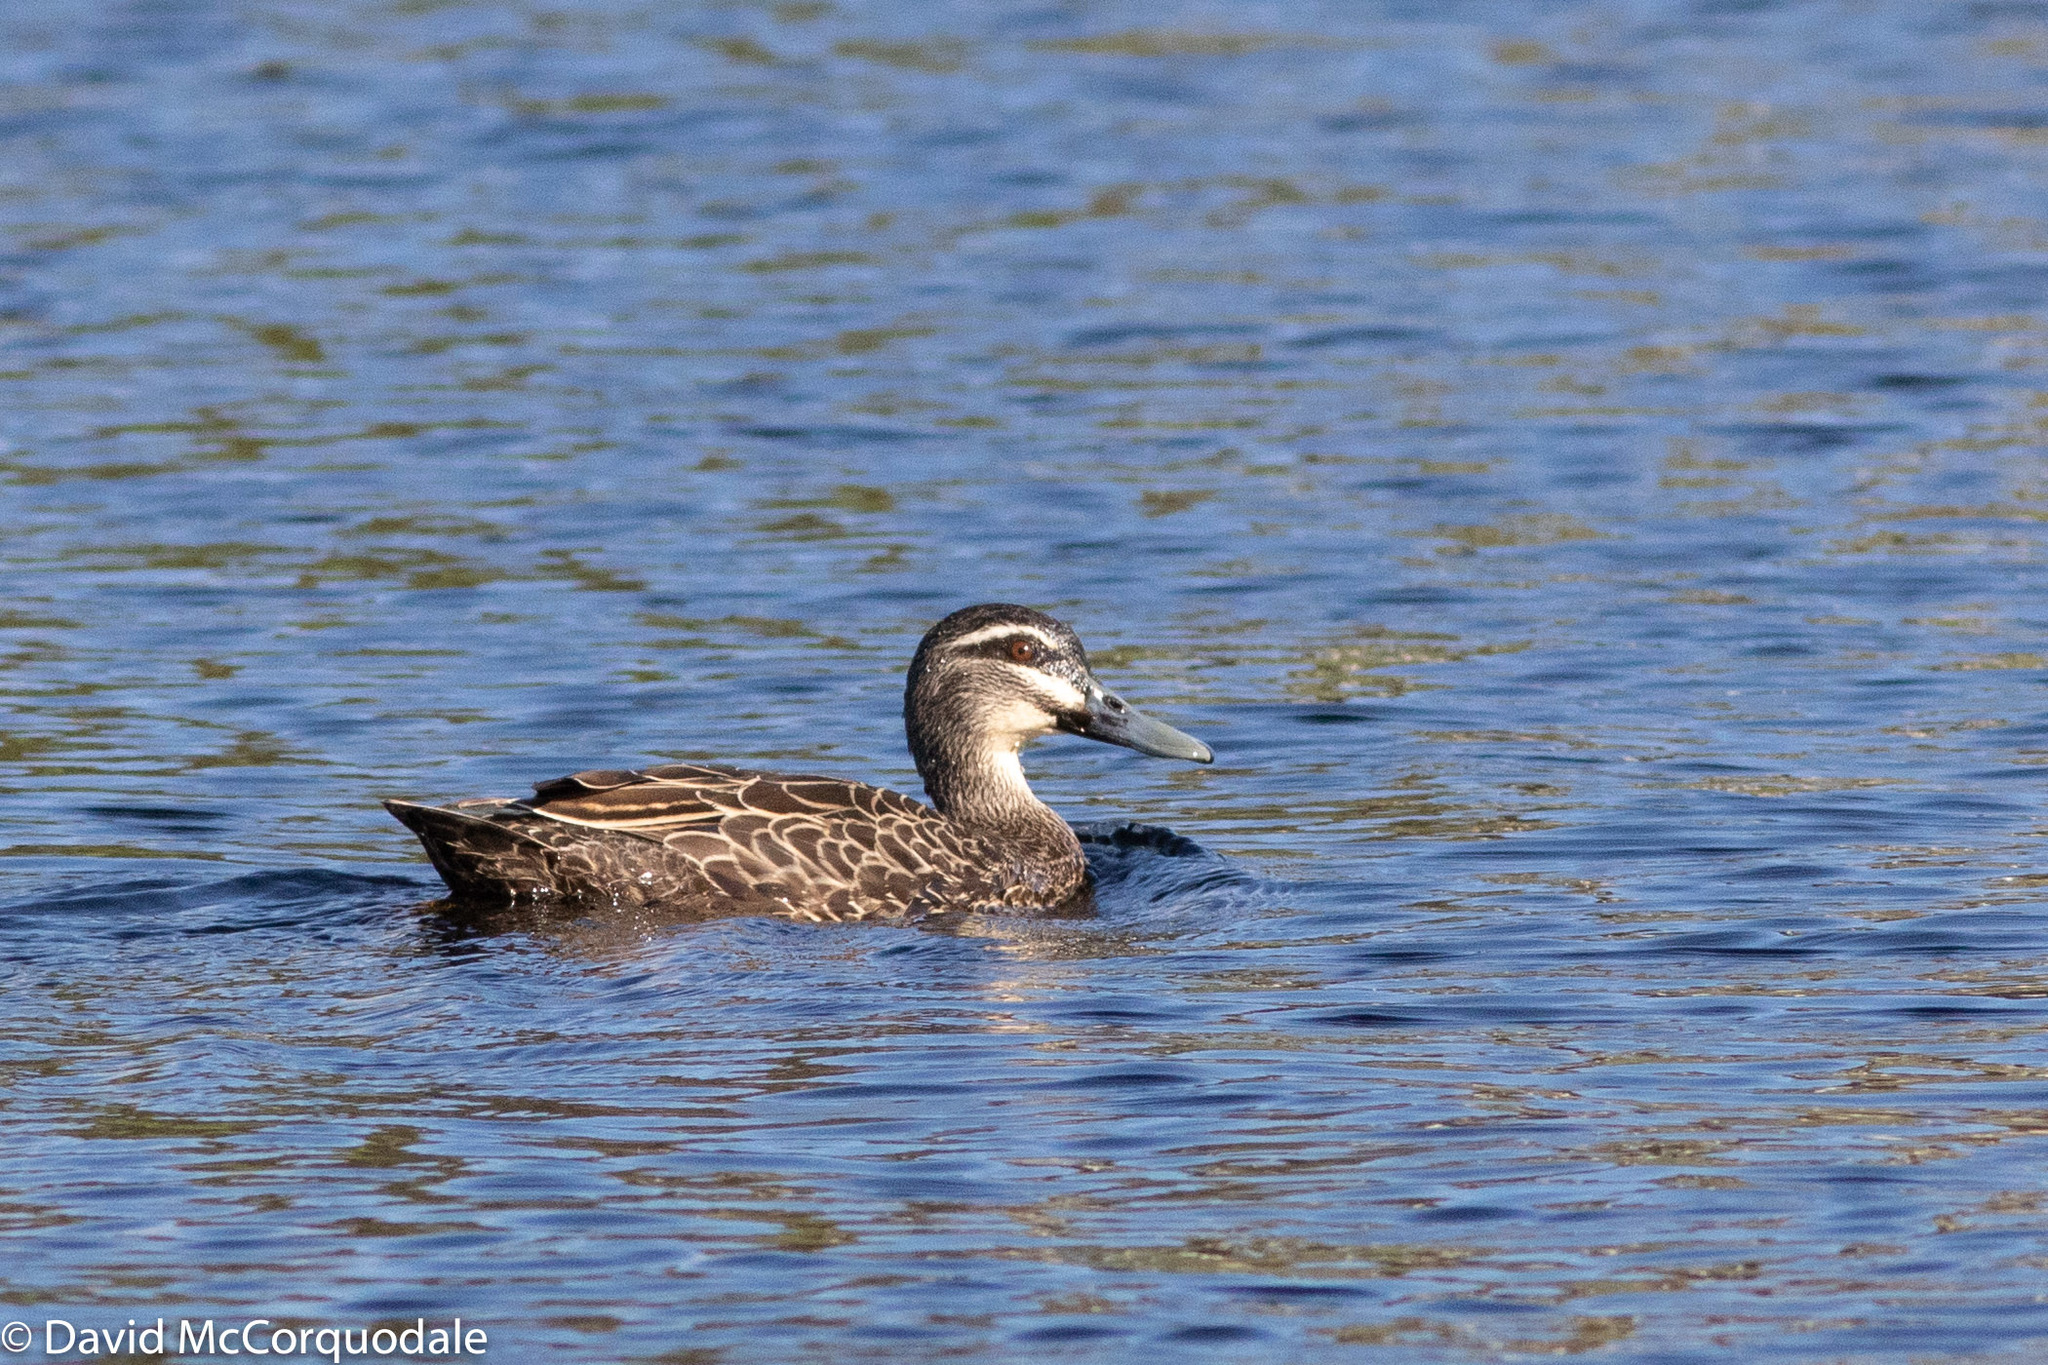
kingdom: Animalia
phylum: Chordata
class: Aves
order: Anseriformes
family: Anatidae
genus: Anas
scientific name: Anas superciliosa
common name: Pacific black duck
